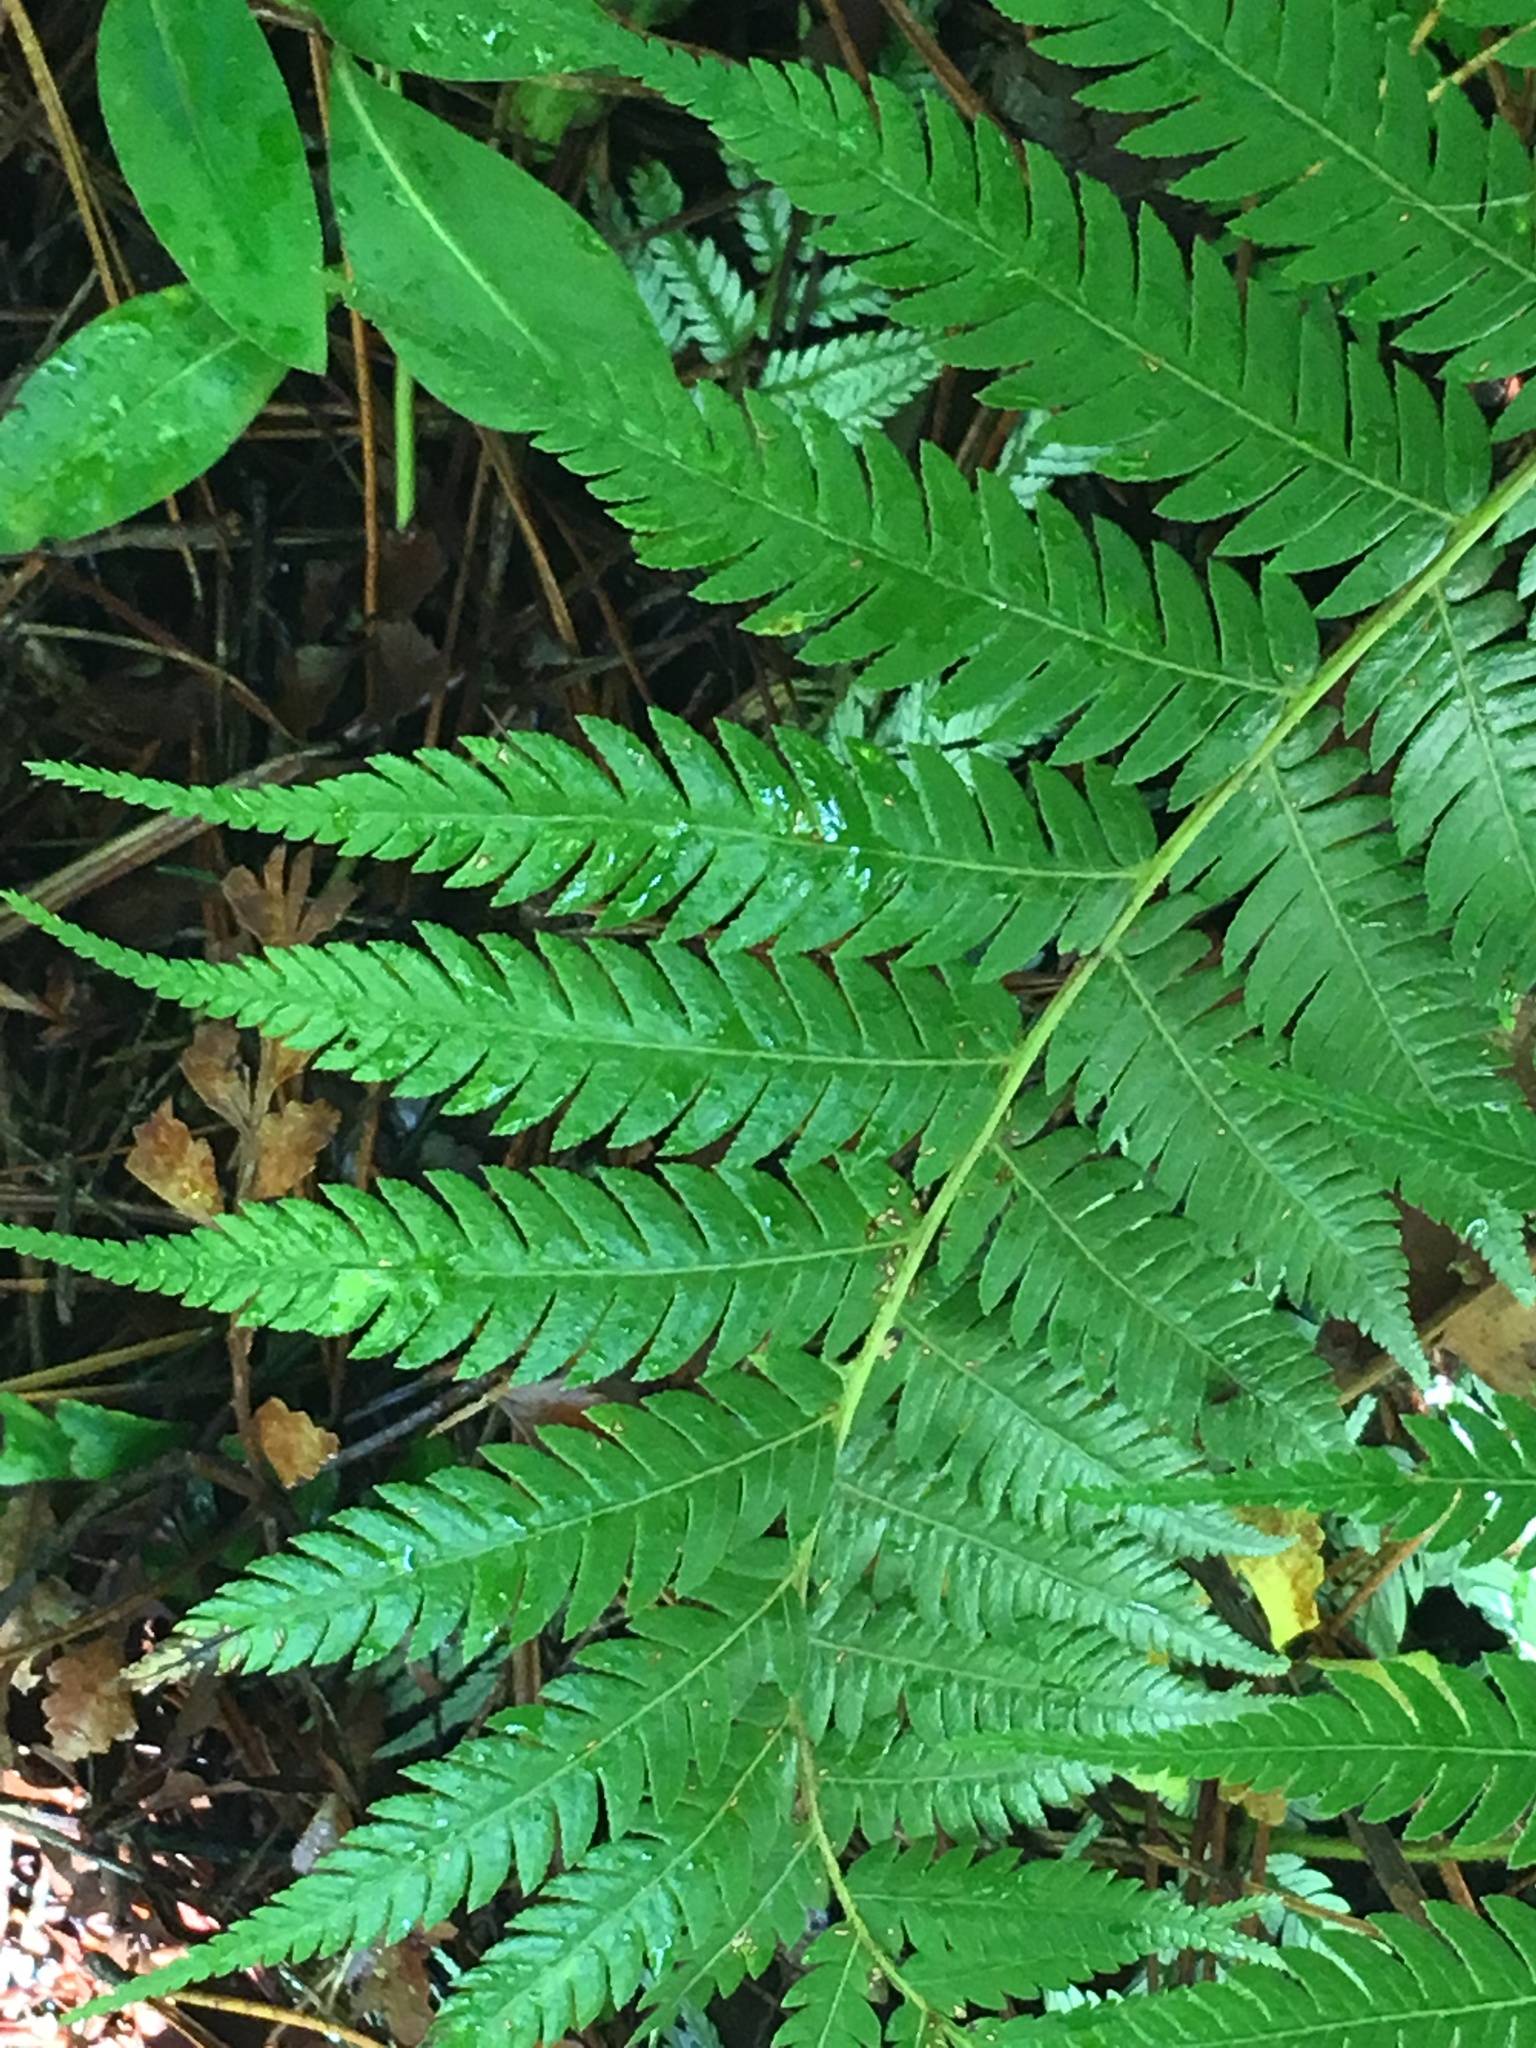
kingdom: Plantae
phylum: Tracheophyta
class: Polypodiopsida
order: Cyatheales
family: Cyatheaceae
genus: Alsophila
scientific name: Alsophila dealbata
